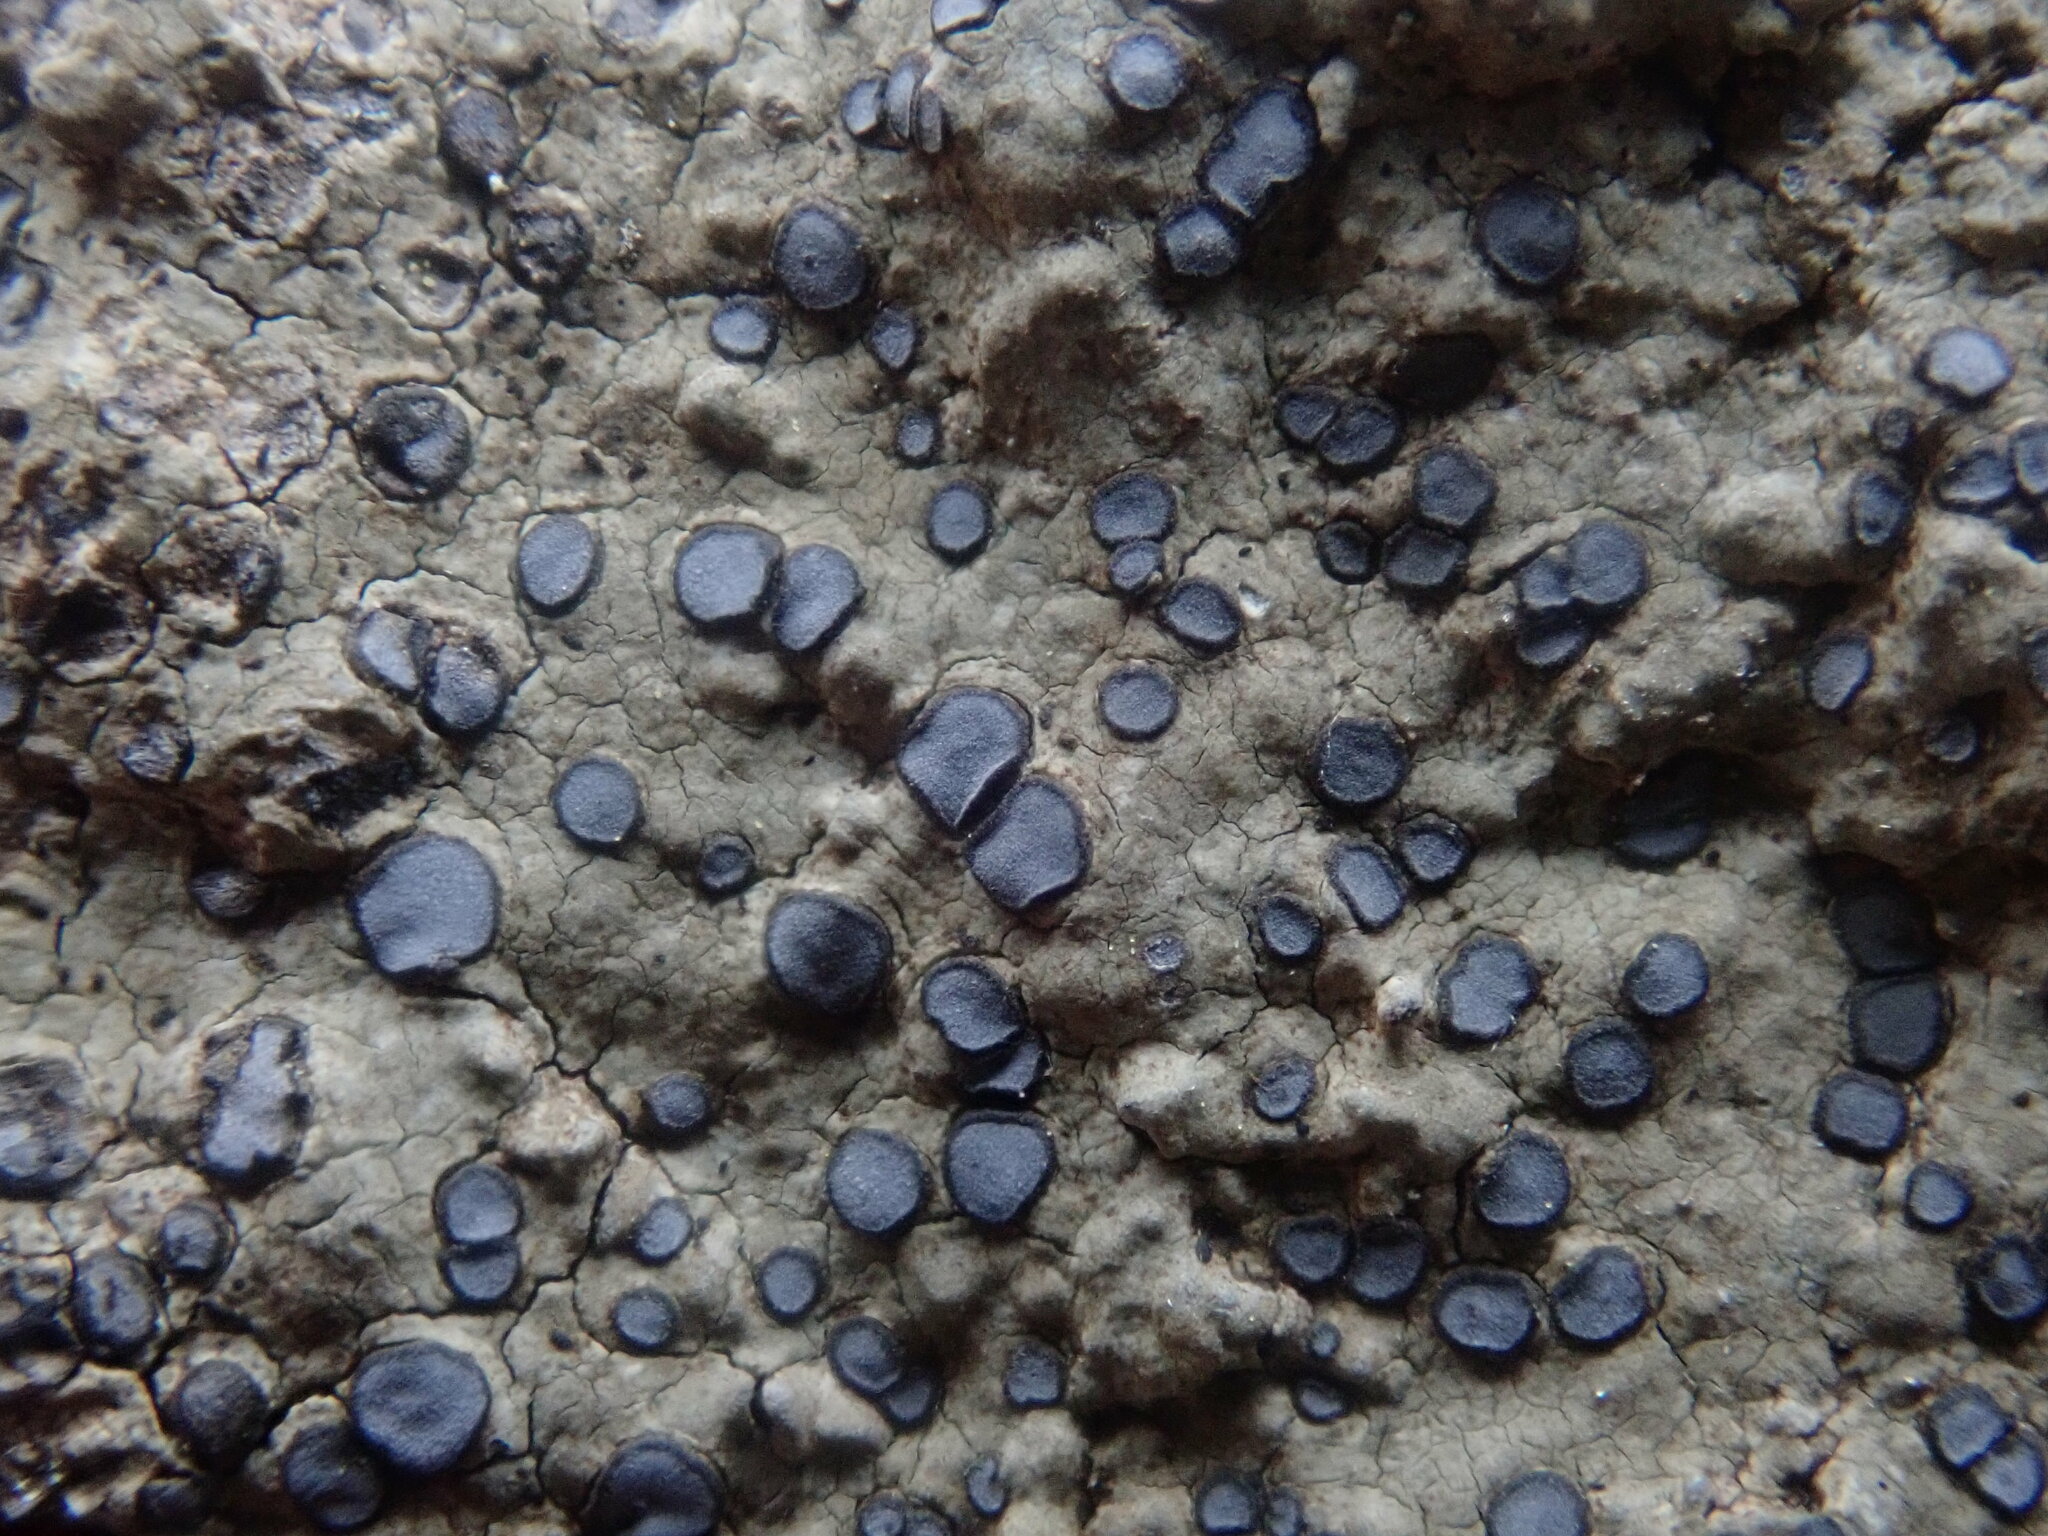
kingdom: Fungi
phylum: Ascomycota
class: Lecanoromycetes
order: Lecideales
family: Lecideaceae
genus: Porpidia
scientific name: Porpidia albocaerulescens
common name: Smokey-eyed boulder lichen
